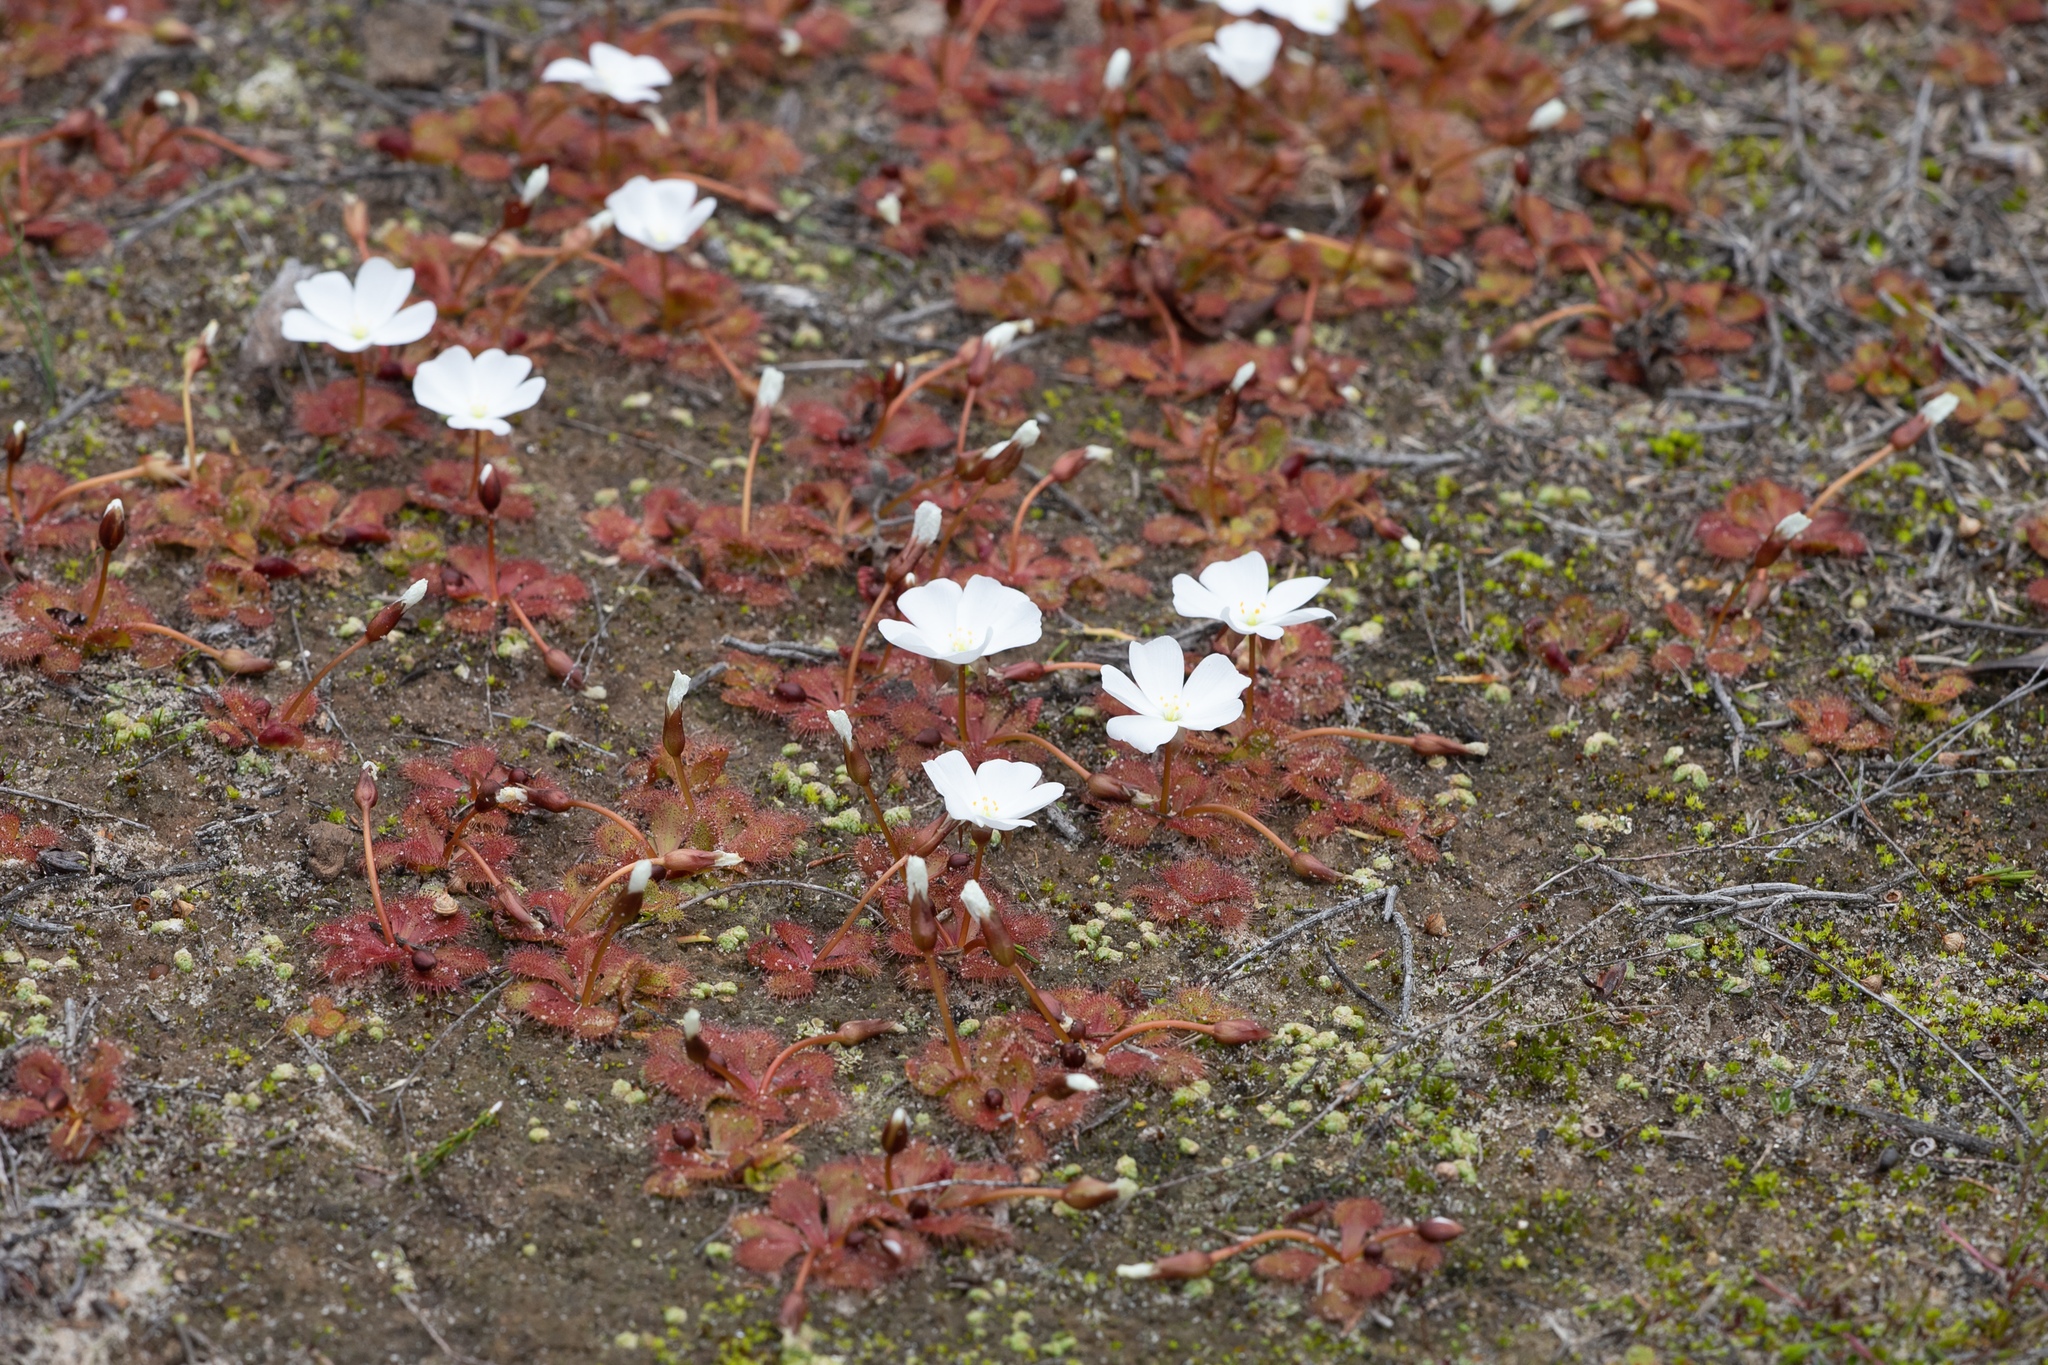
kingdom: Plantae
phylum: Tracheophyta
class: Magnoliopsida
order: Caryophyllales
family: Droseraceae
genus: Drosera
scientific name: Drosera aberrans
